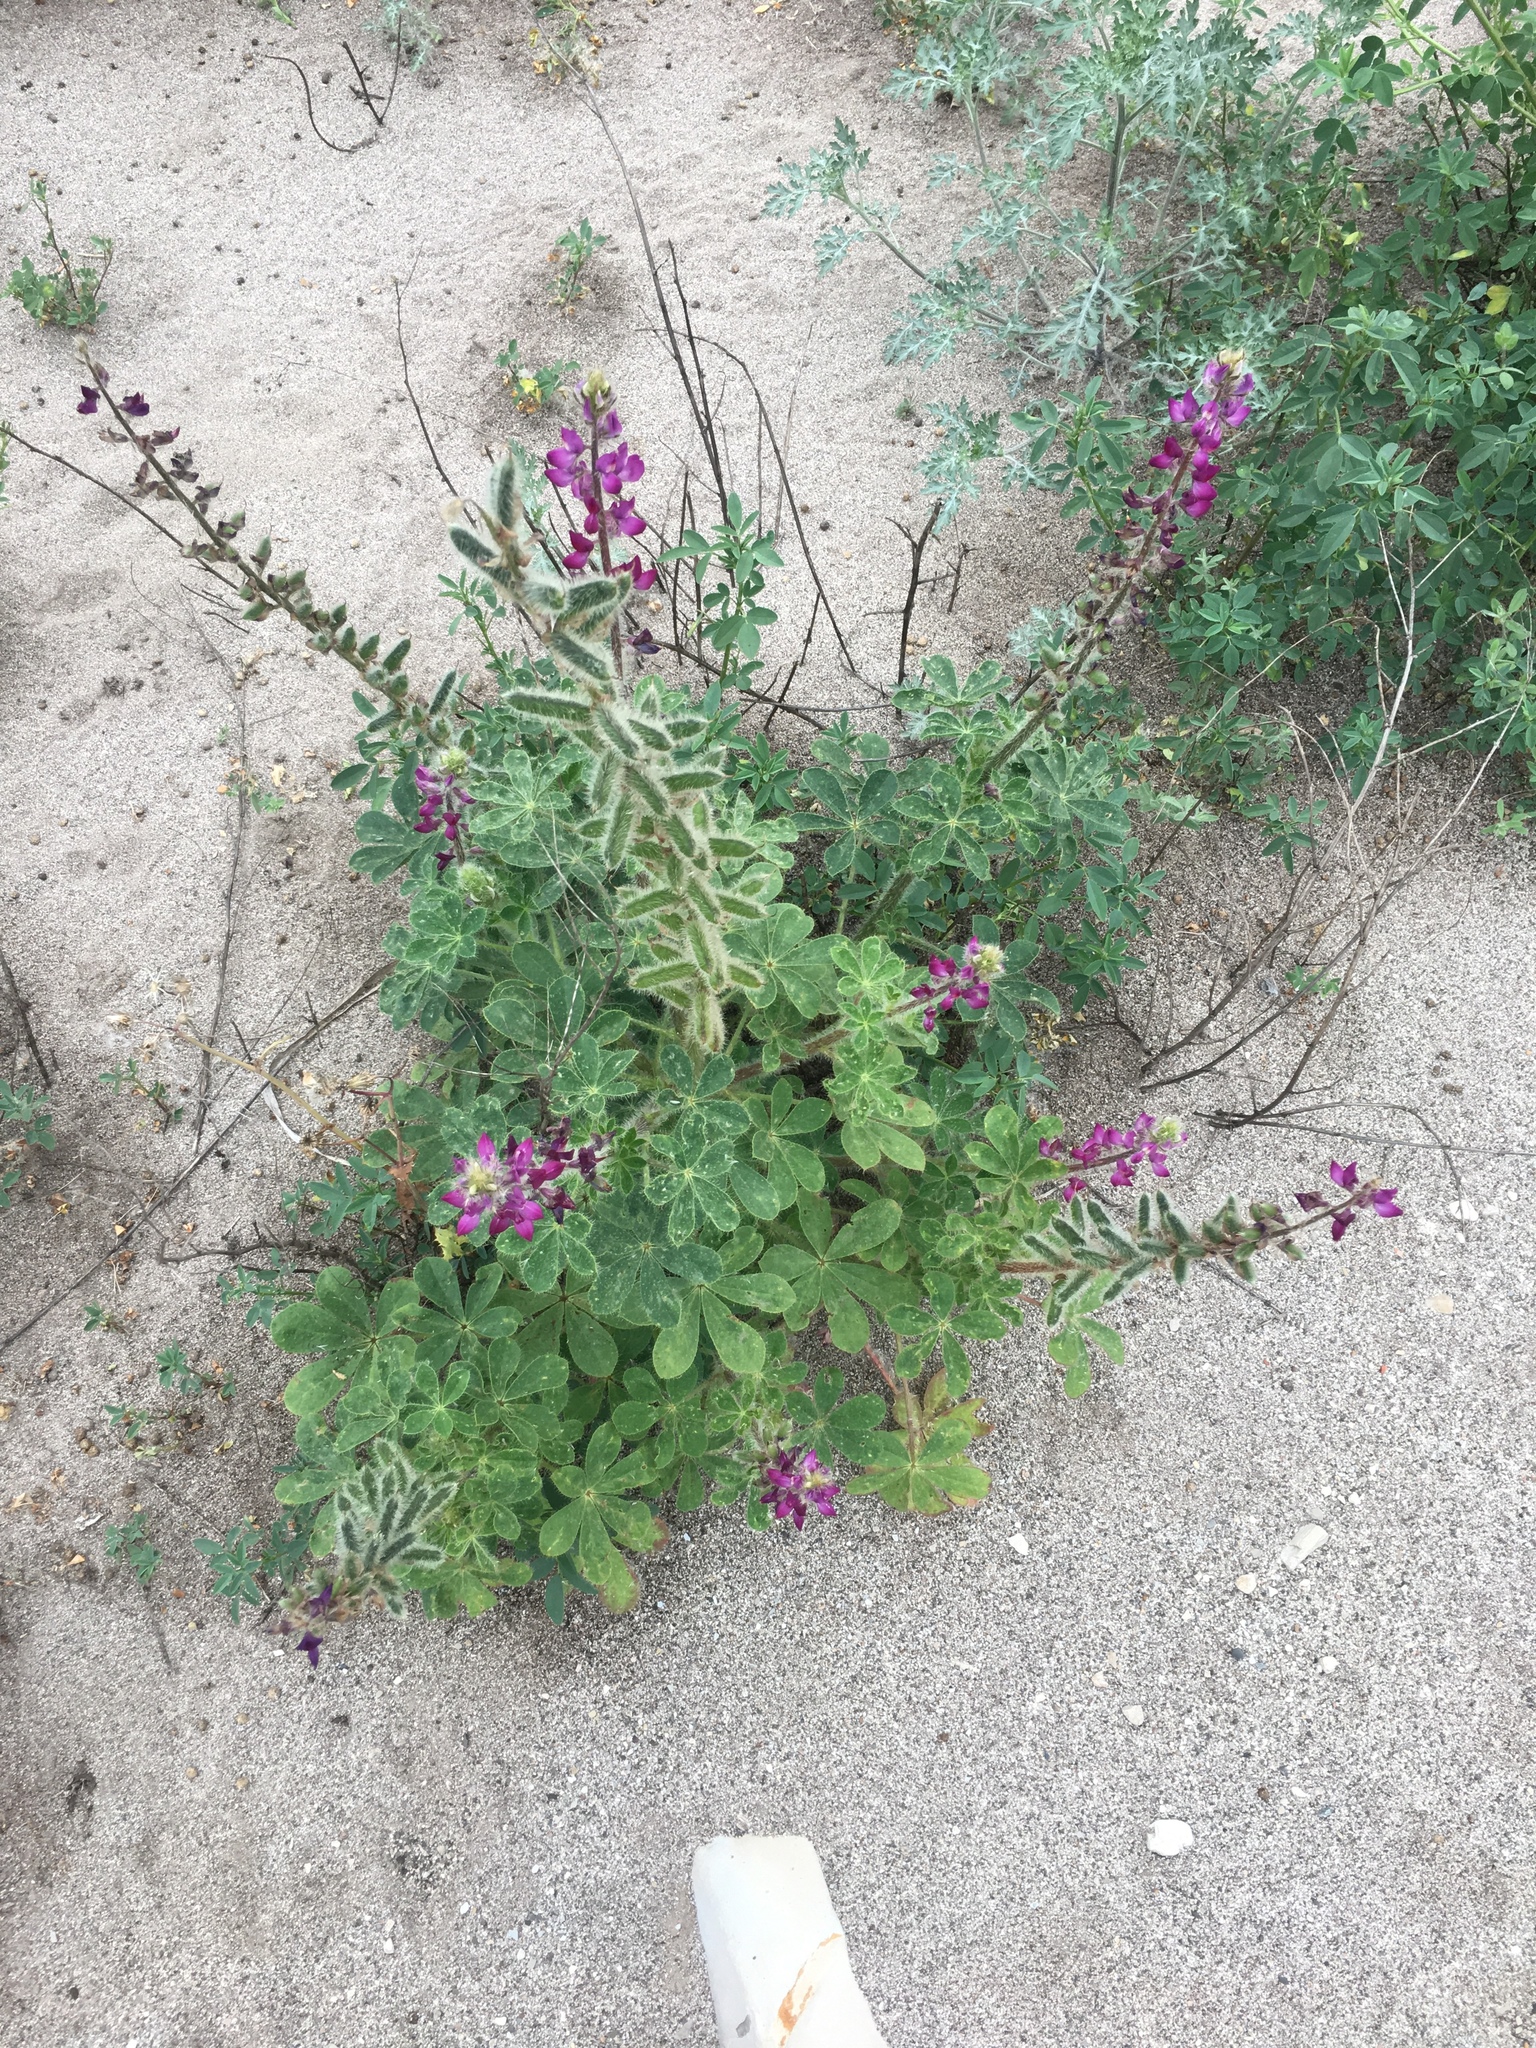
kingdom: Plantae
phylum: Tracheophyta
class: Magnoliopsida
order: Fabales
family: Fabaceae
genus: Lupinus
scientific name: Lupinus hirsutissimus
